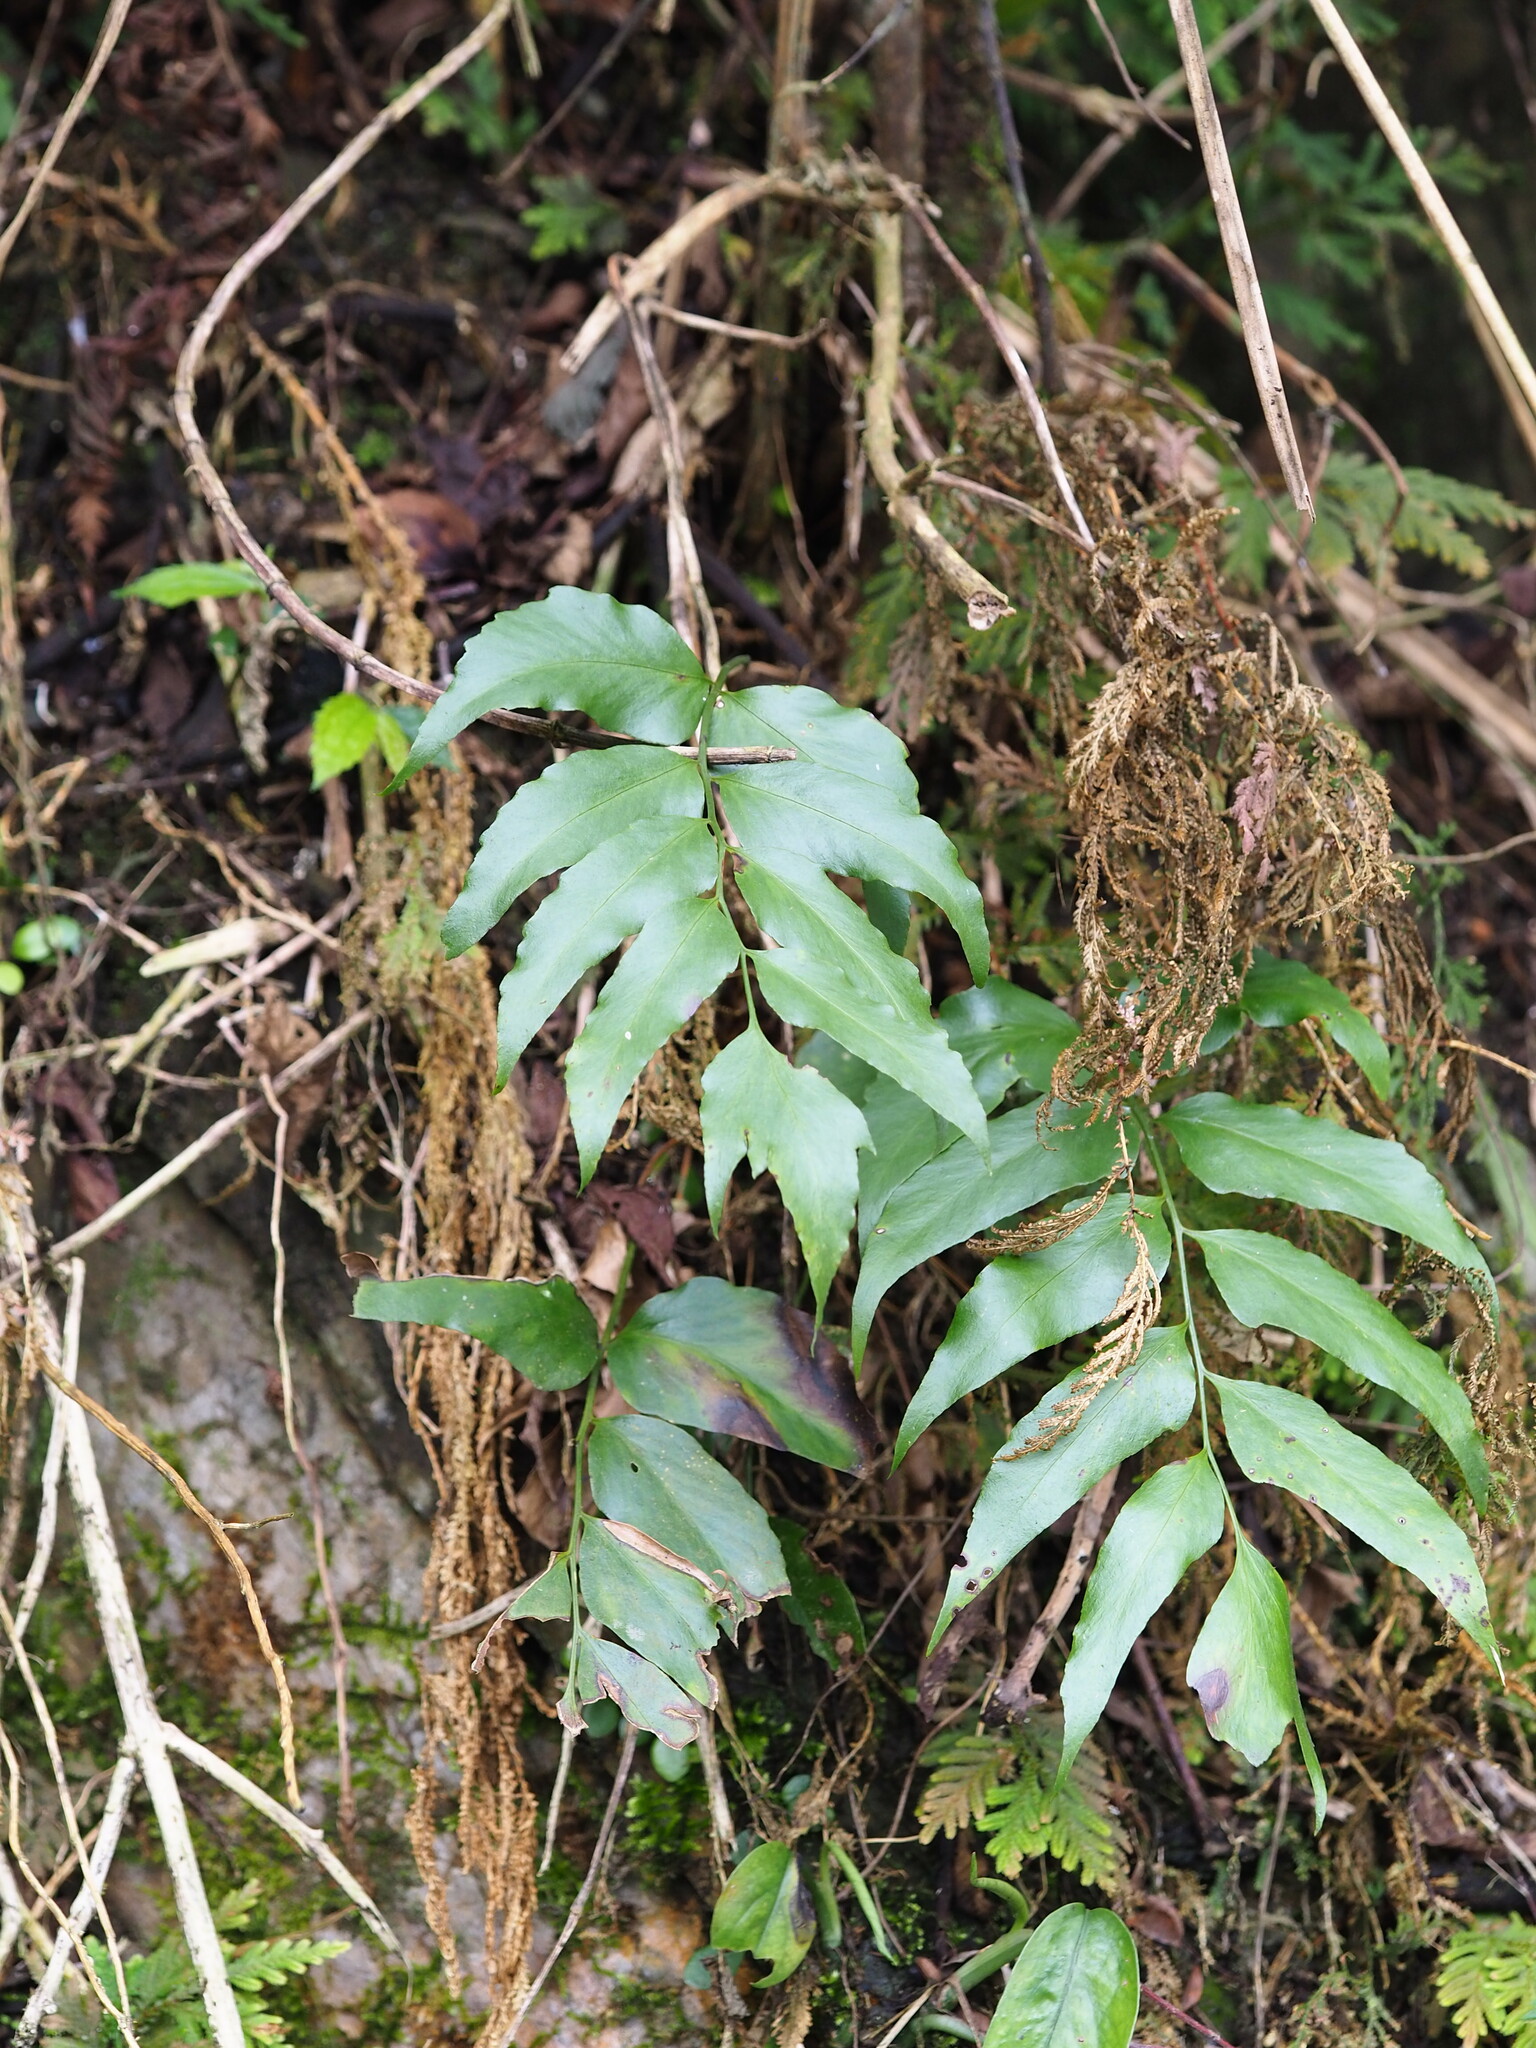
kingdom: Plantae
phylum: Tracheophyta
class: Polypodiopsida
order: Polypodiales
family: Dryopteridaceae
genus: Cyrtomium
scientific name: Cyrtomium devexiscapulae
